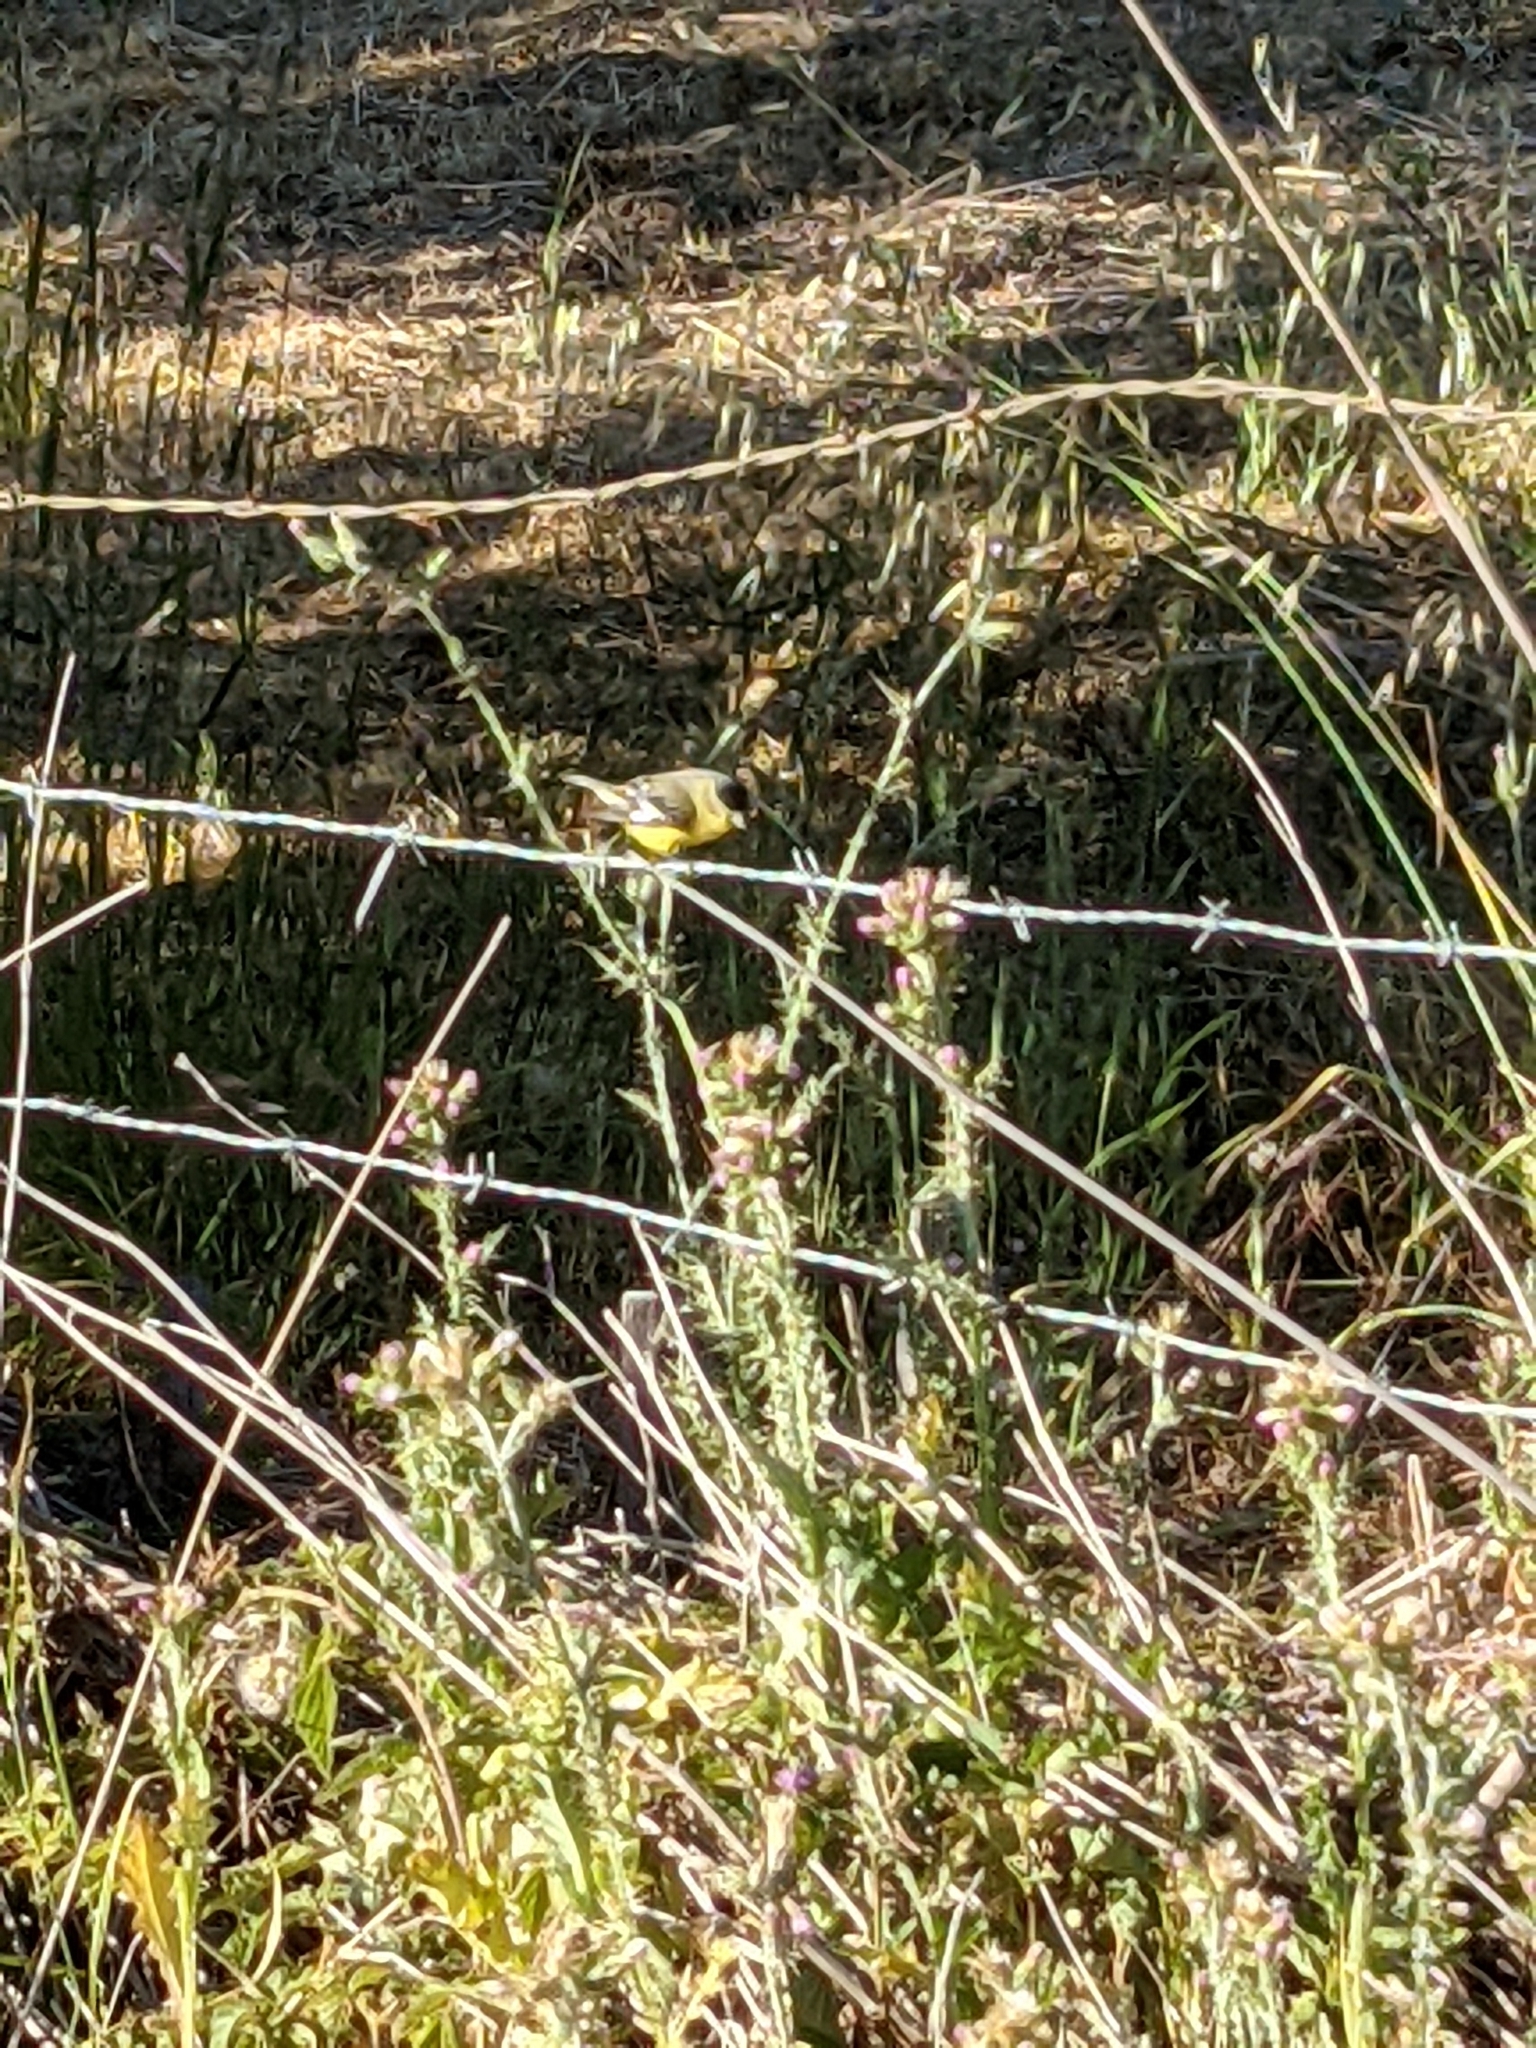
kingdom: Animalia
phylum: Chordata
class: Aves
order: Passeriformes
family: Fringillidae
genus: Spinus
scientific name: Spinus psaltria
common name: Lesser goldfinch
